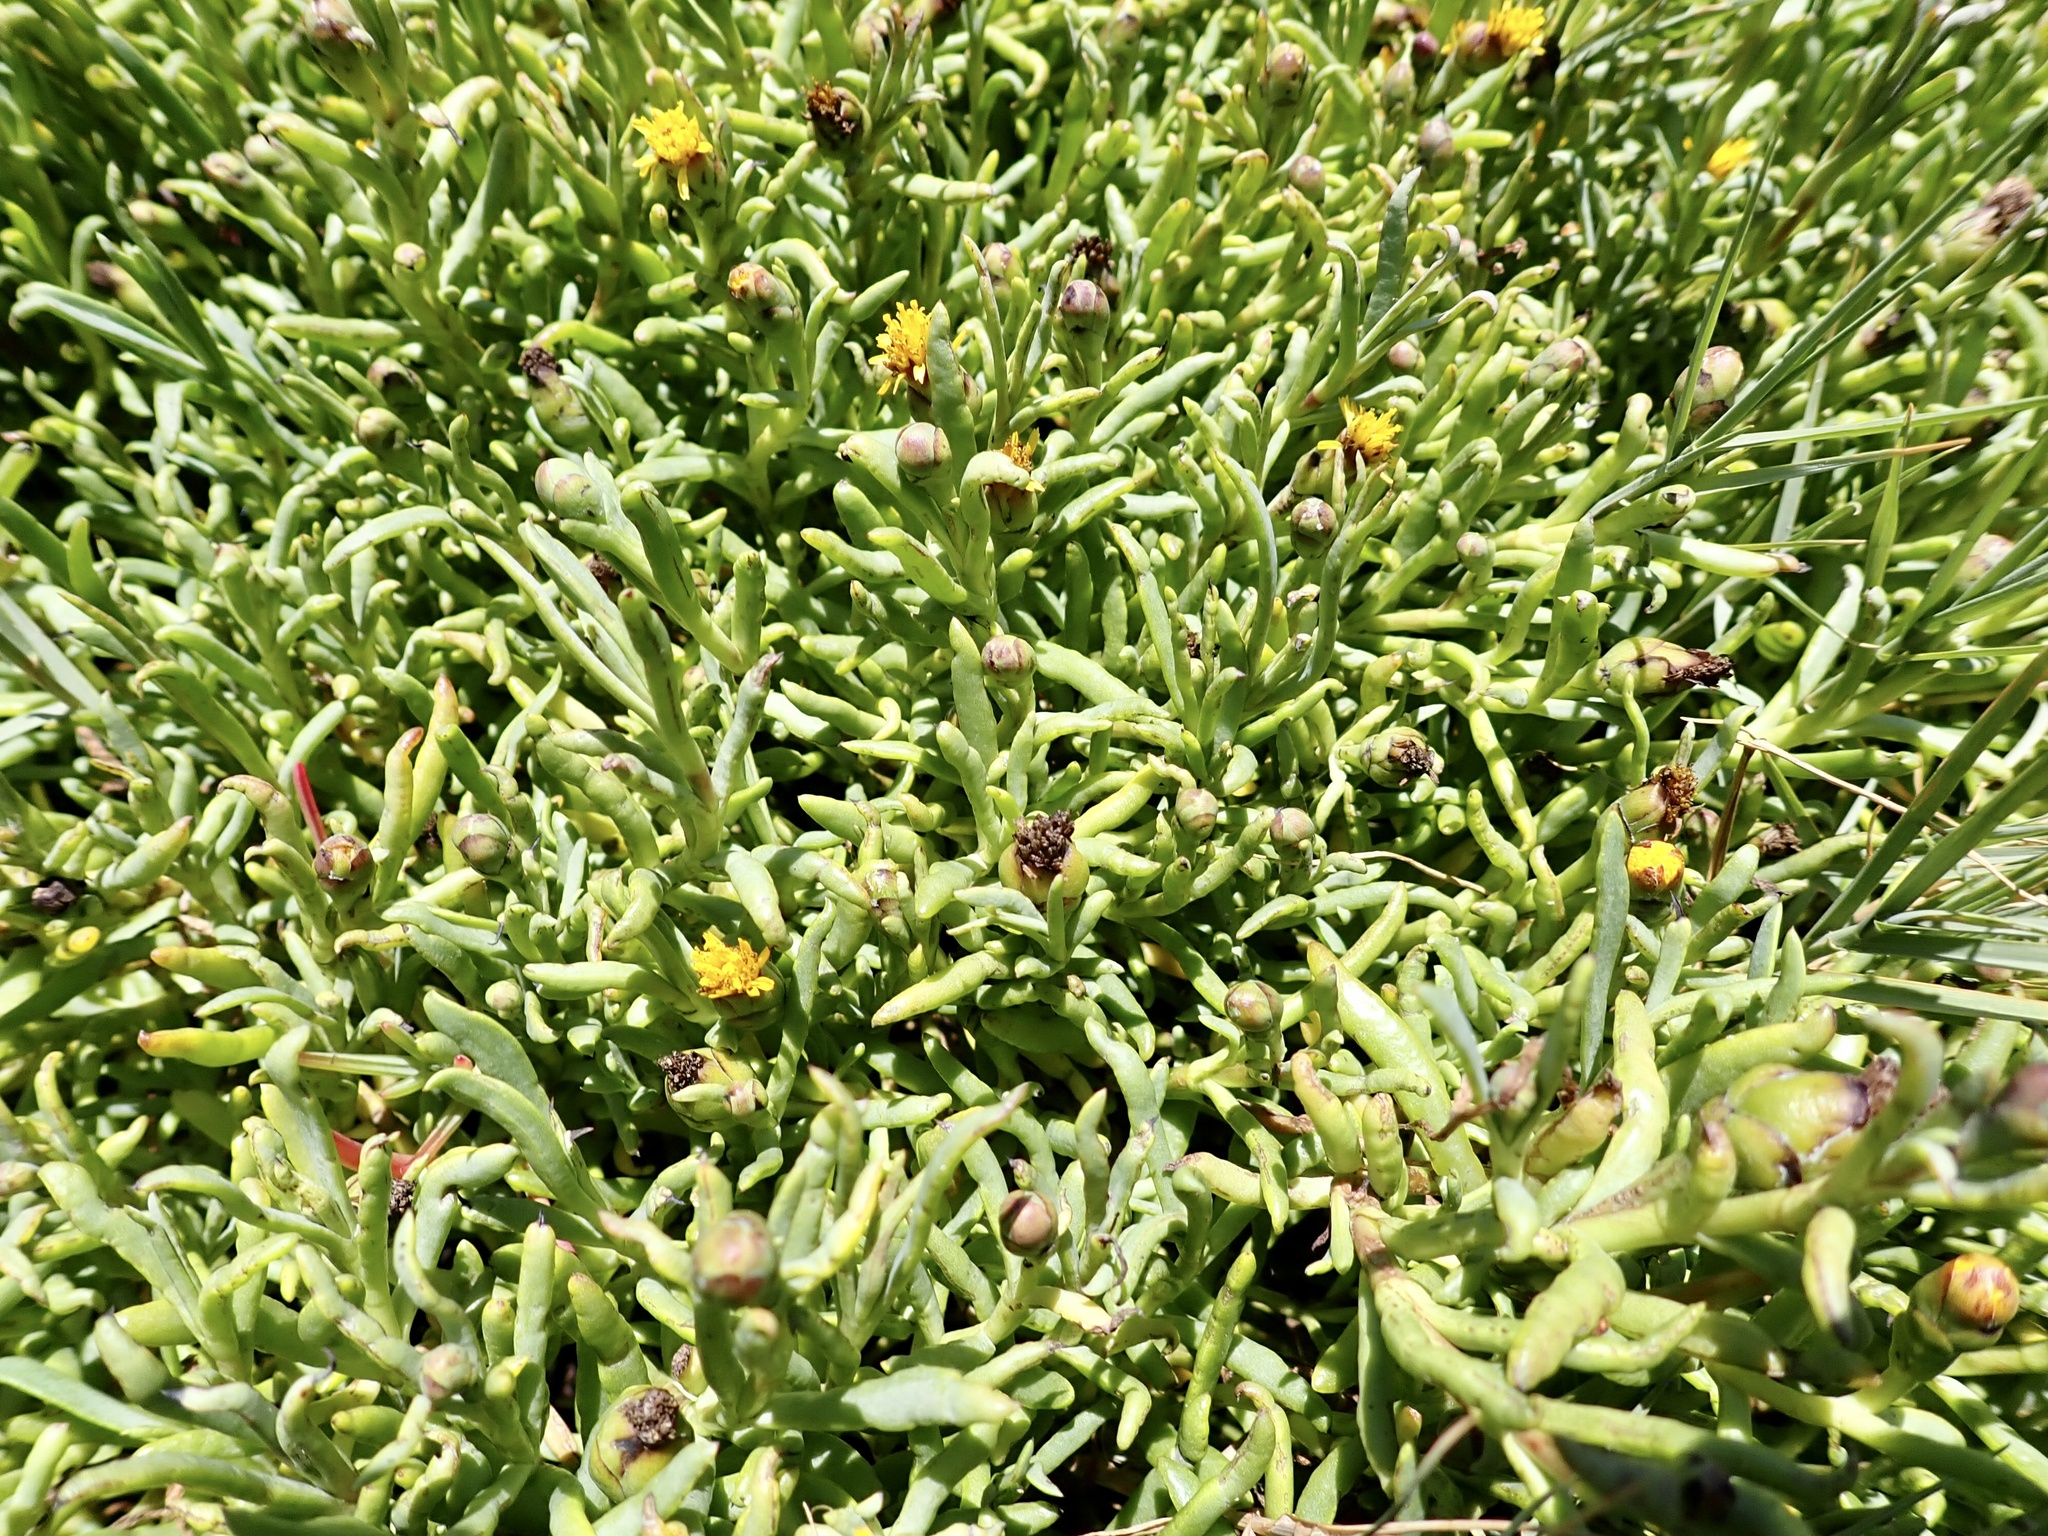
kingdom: Plantae
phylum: Tracheophyta
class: Magnoliopsida
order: Asterales
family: Asteraceae
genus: Jaumea
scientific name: Jaumea carnosa
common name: Fleshy jaumea
